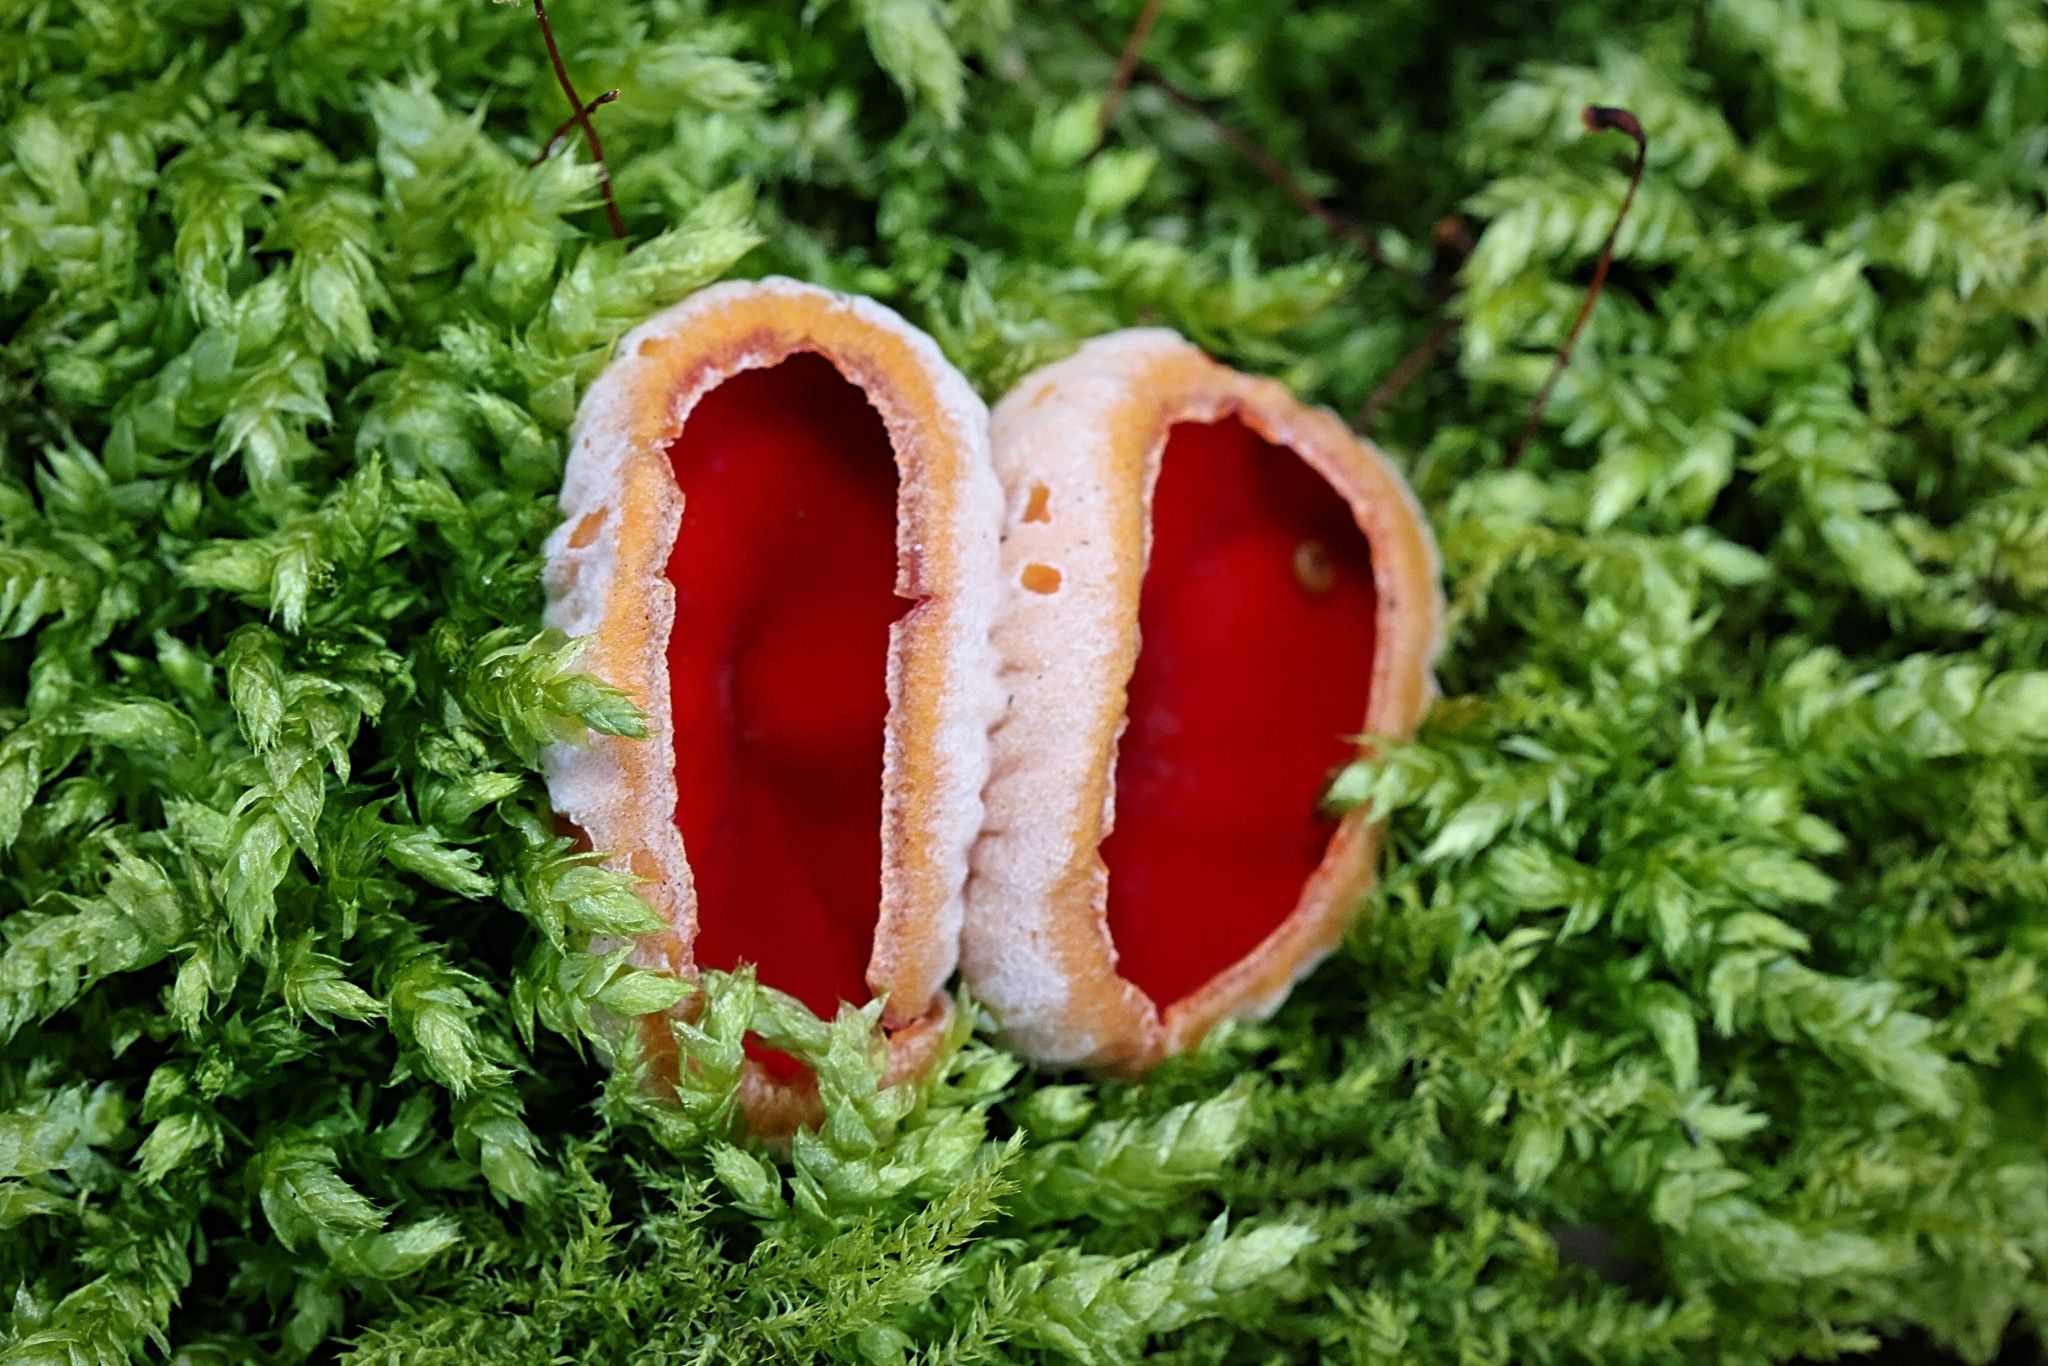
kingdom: Fungi
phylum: Ascomycota
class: Pezizomycetes
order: Pezizales
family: Sarcoscyphaceae
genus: Sarcoscypha
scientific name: Sarcoscypha
